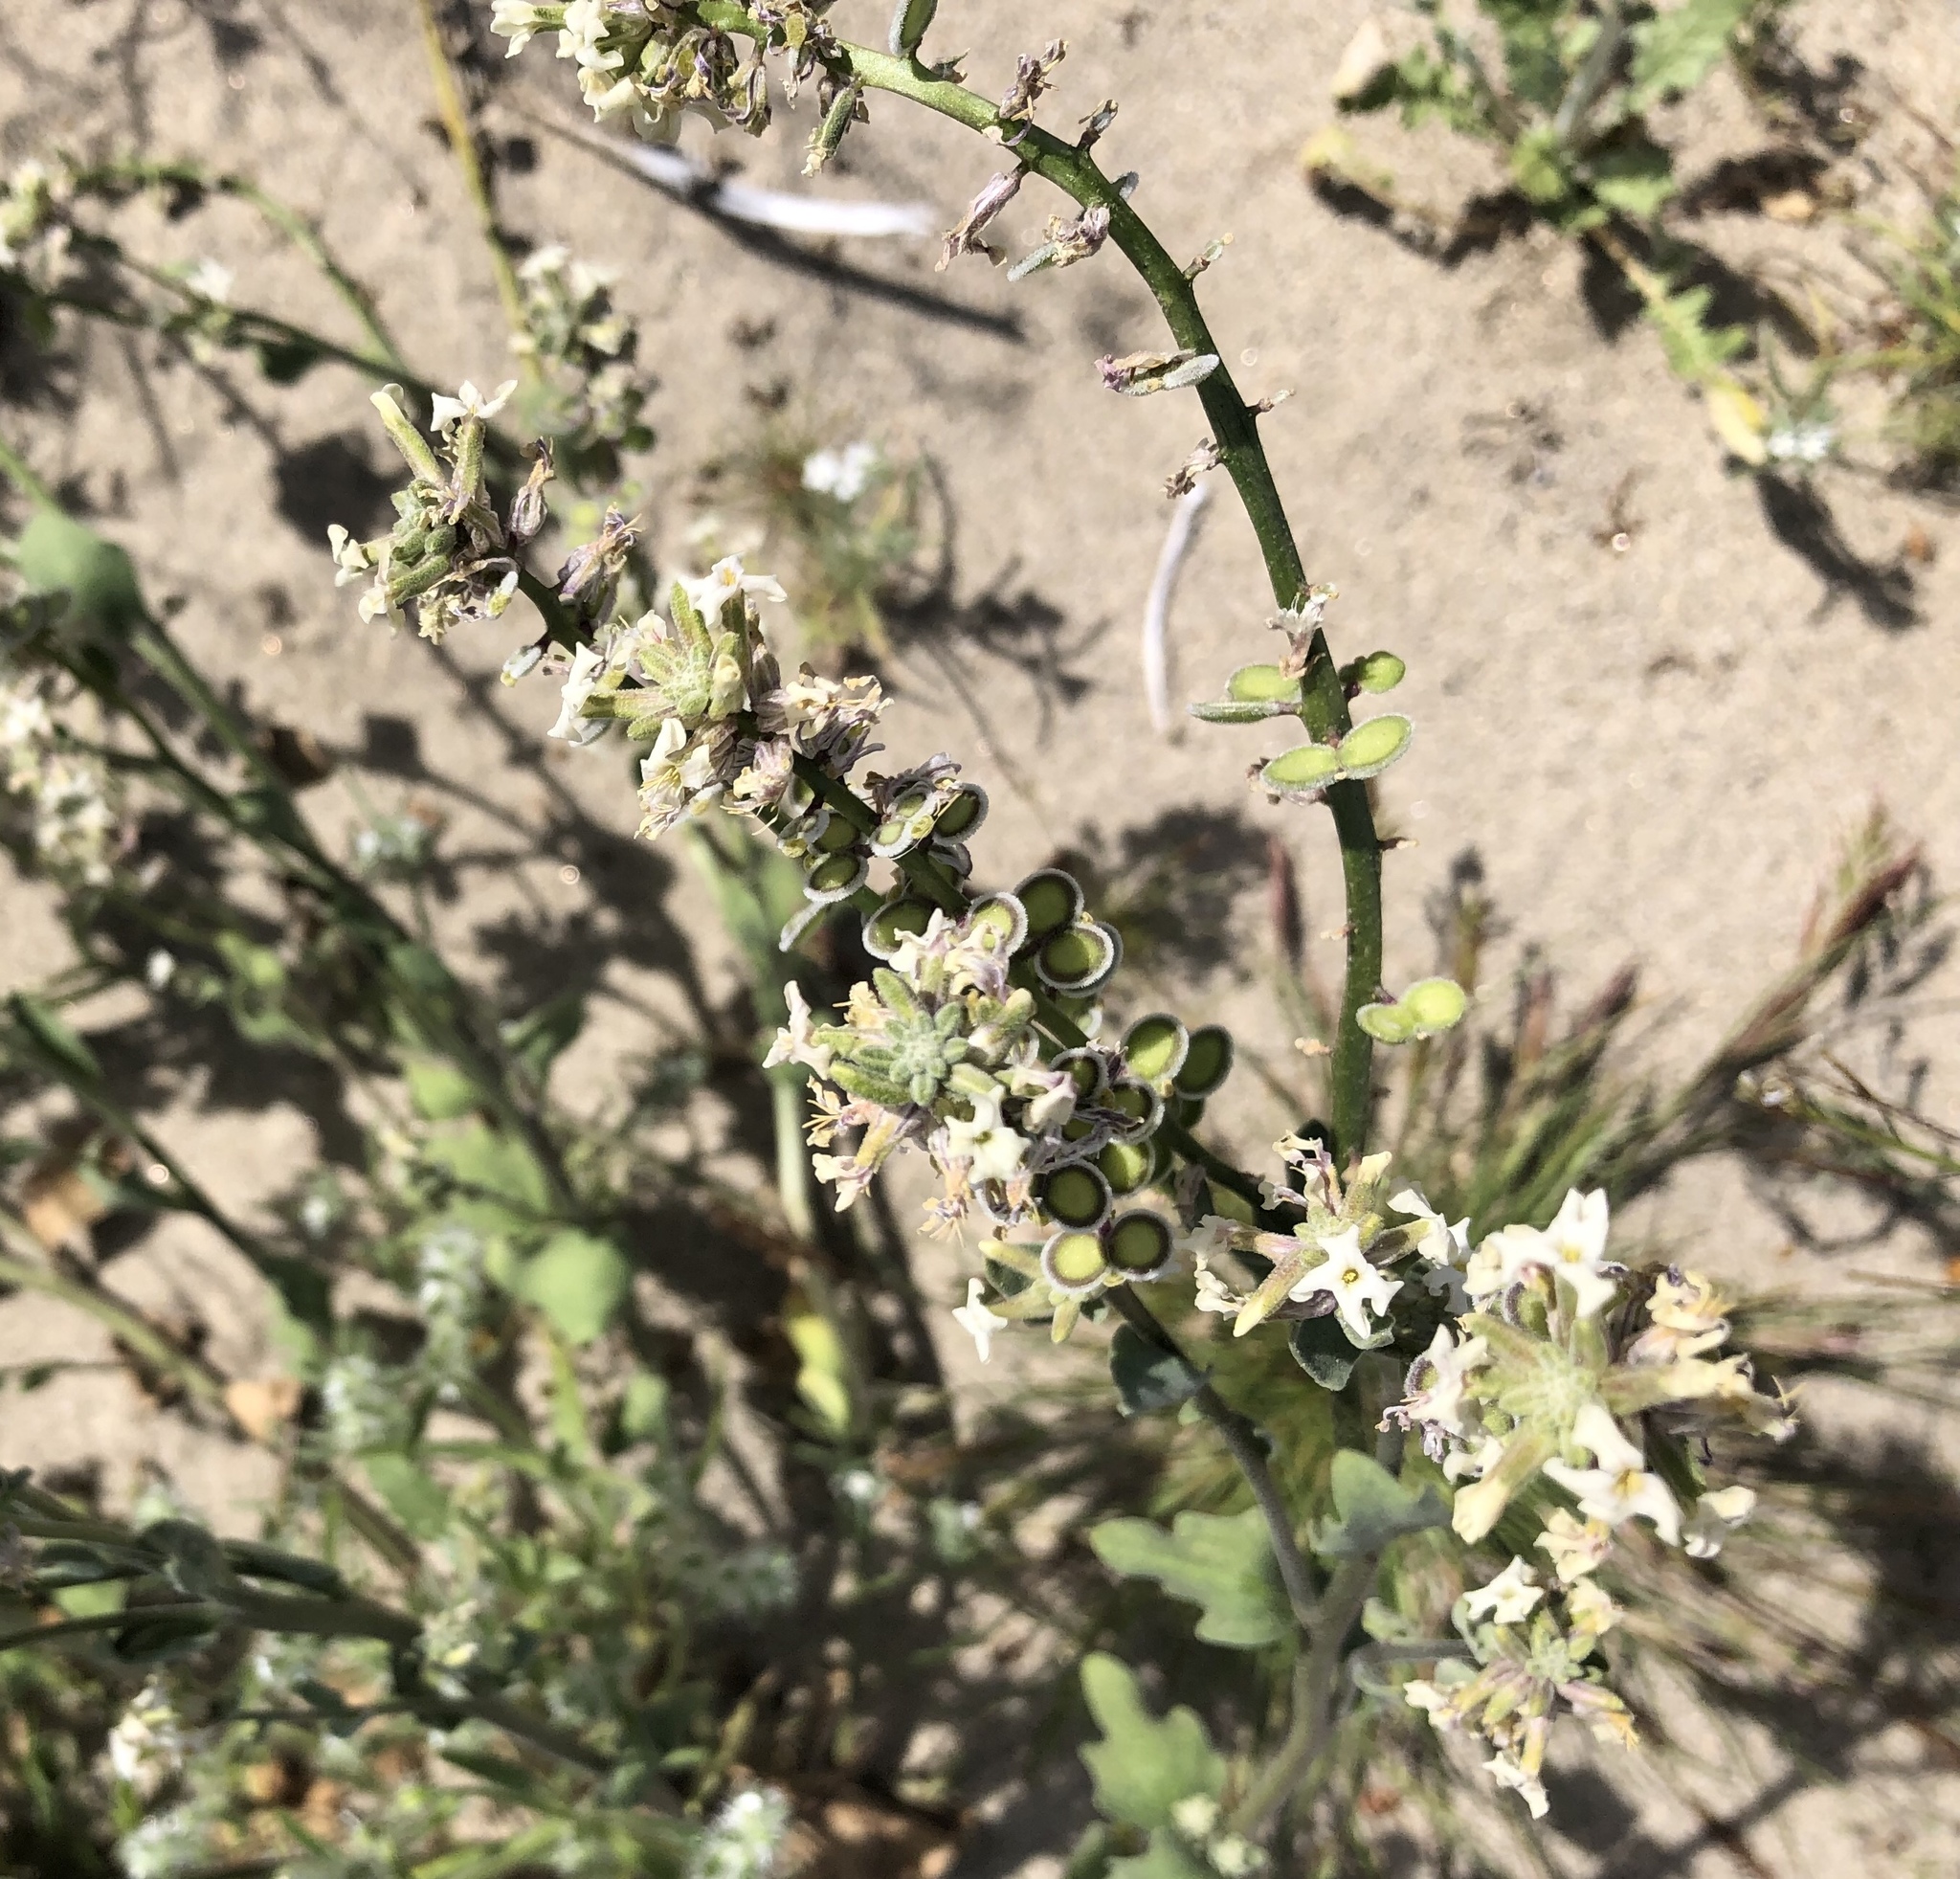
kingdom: Plantae
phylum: Tracheophyta
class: Magnoliopsida
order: Brassicales
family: Brassicaceae
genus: Dithyrea
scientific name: Dithyrea californica
